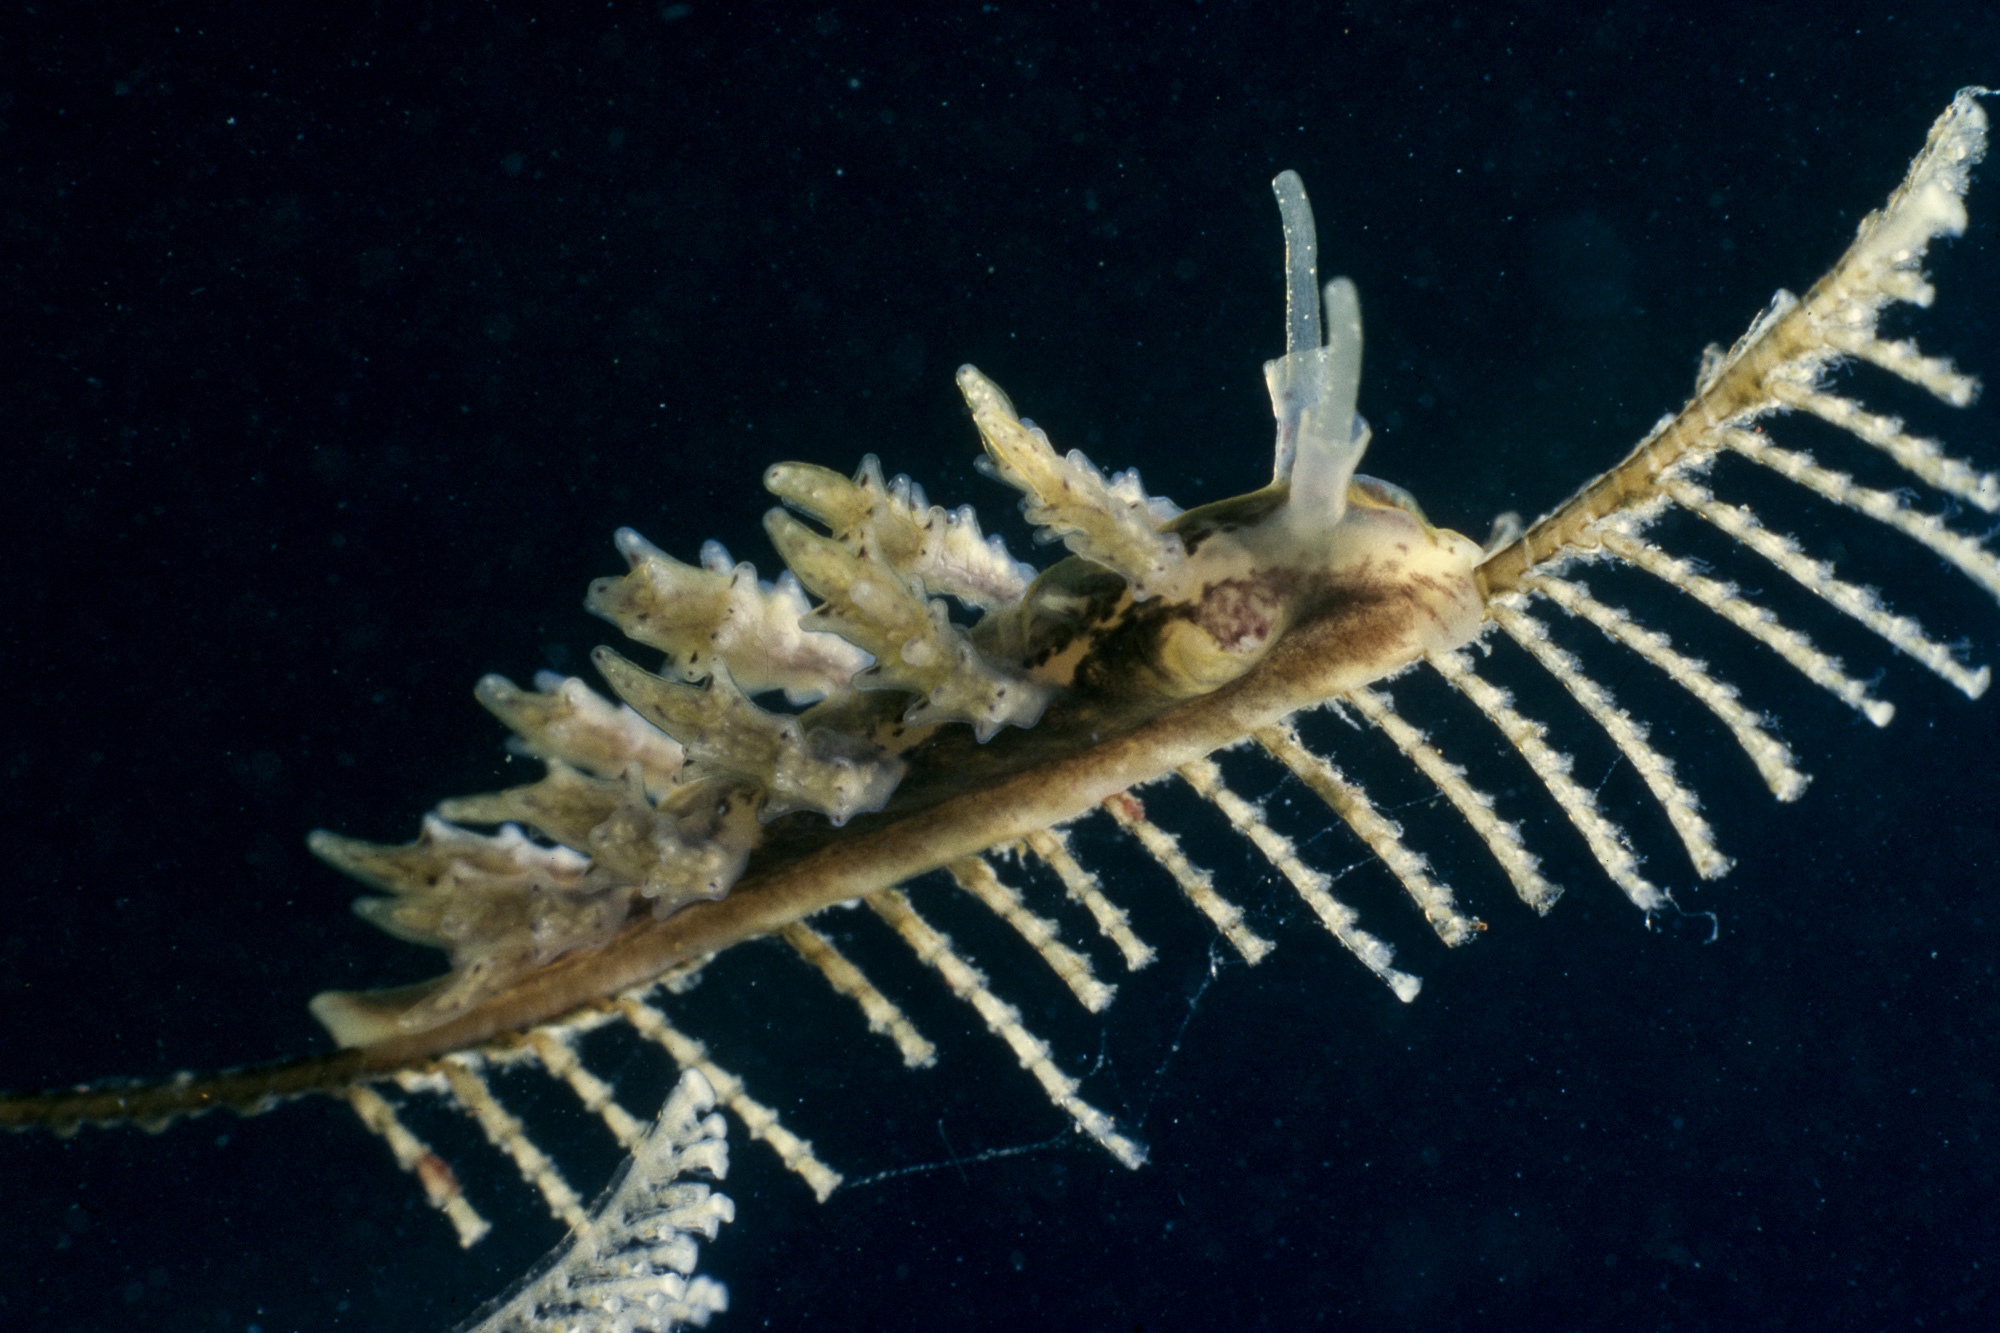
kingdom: Animalia
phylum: Mollusca
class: Gastropoda
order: Nudibranchia
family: Dotidae
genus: Doto
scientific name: Doto koenneckeri
